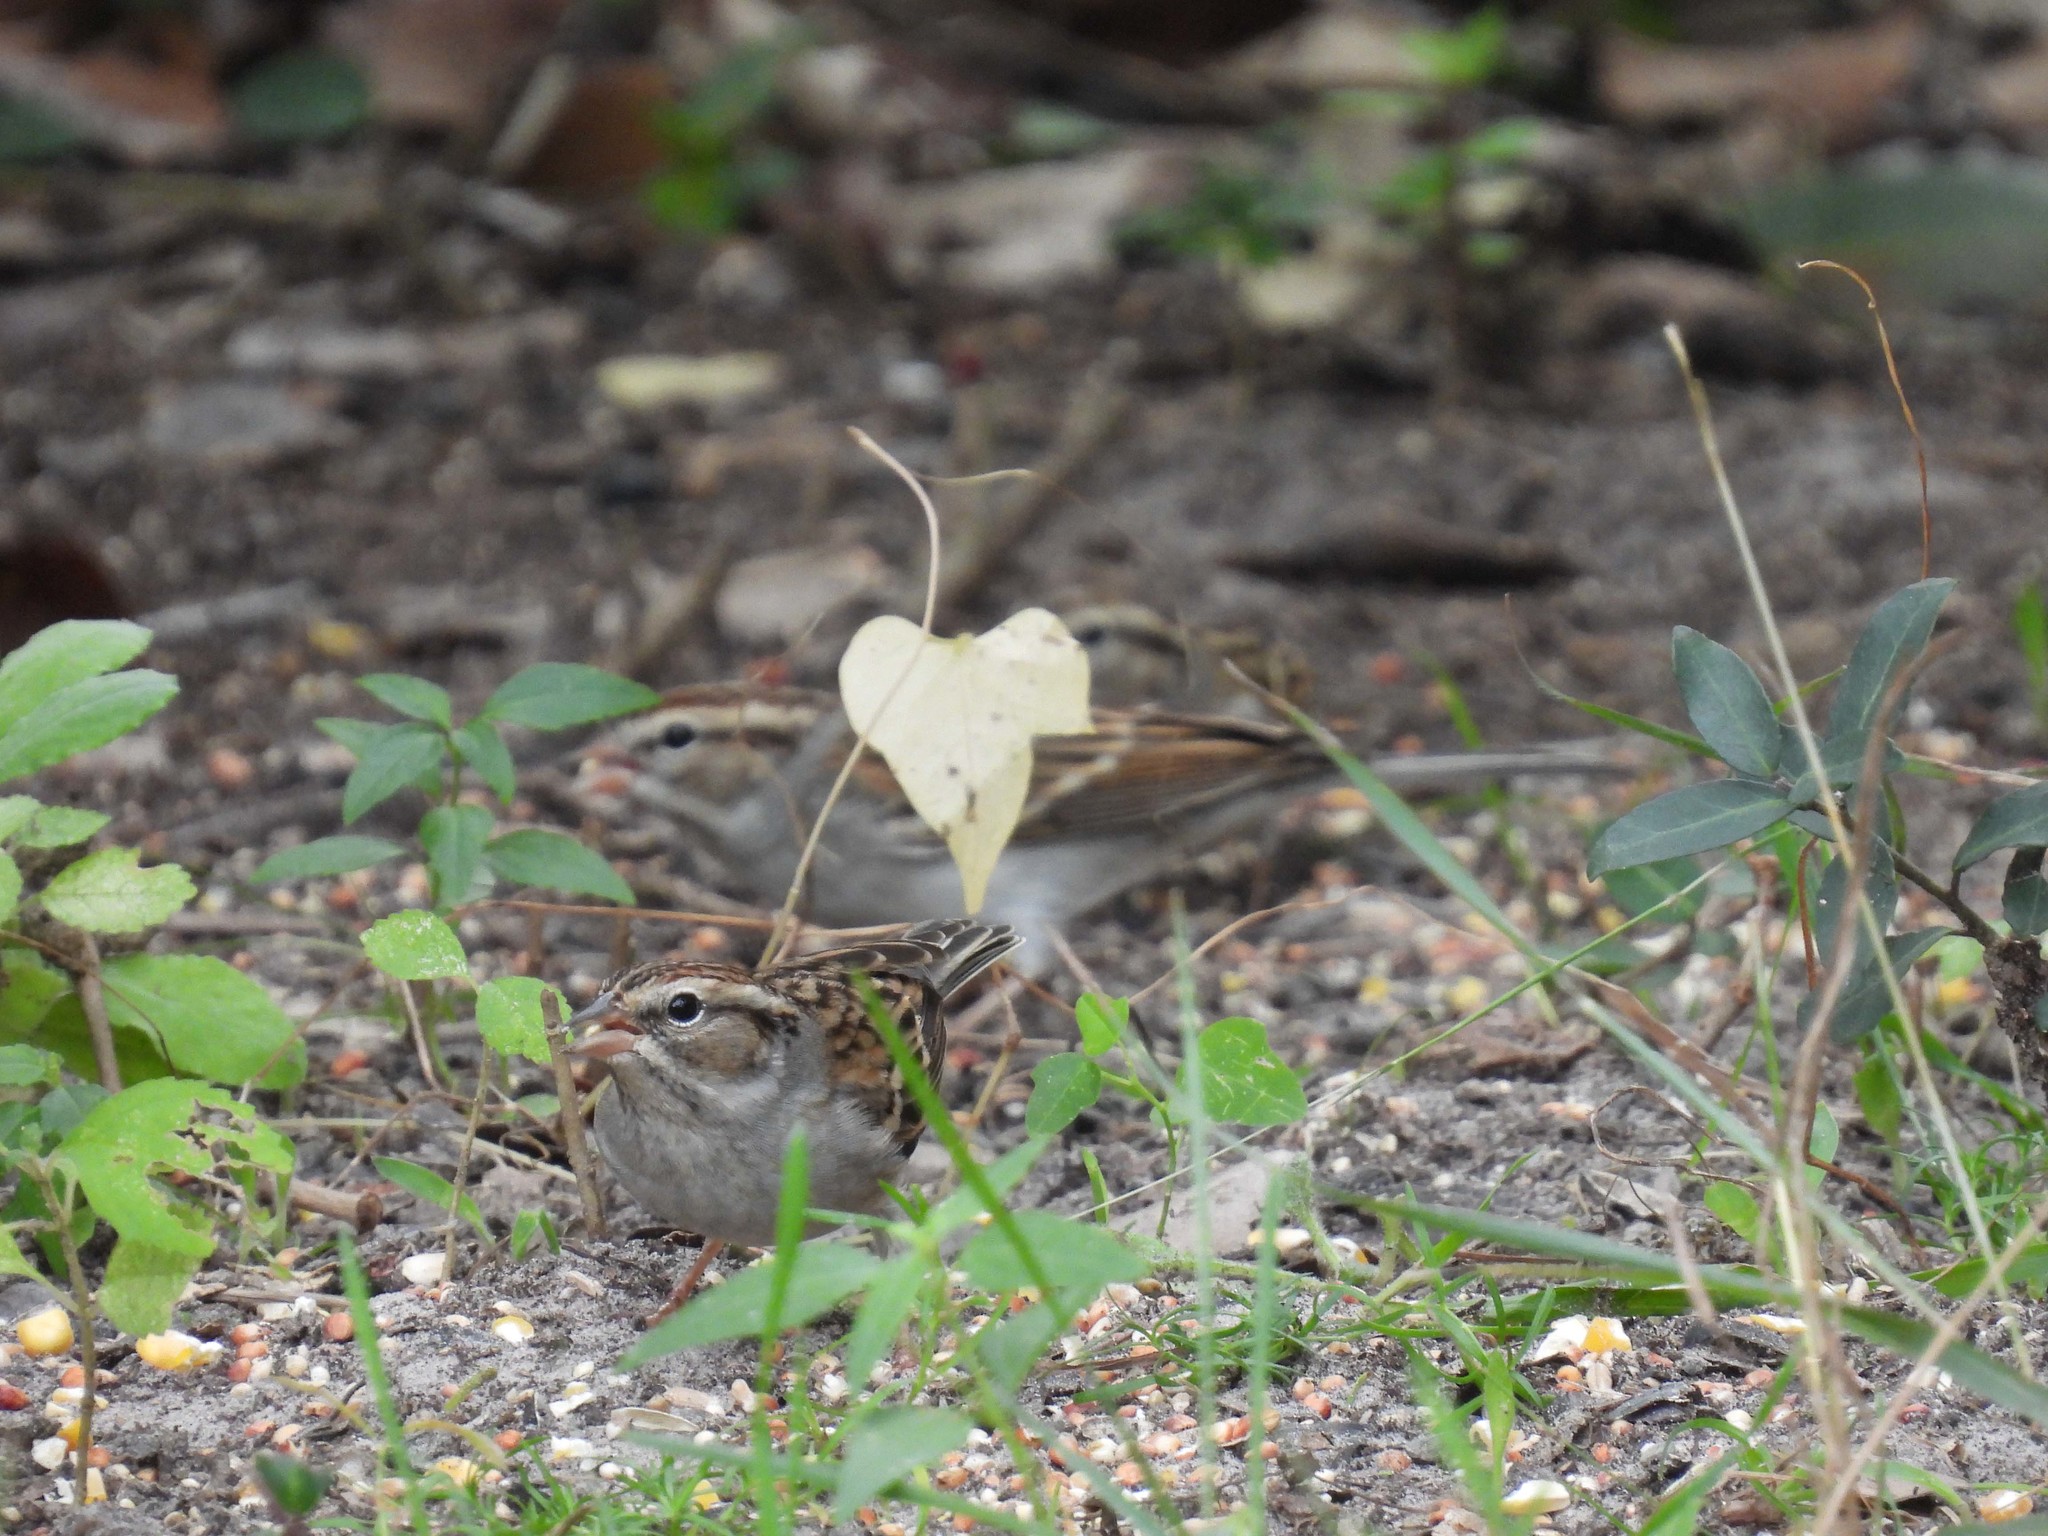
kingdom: Animalia
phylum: Chordata
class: Aves
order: Passeriformes
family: Passerellidae
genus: Spizella
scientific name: Spizella passerina
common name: Chipping sparrow
